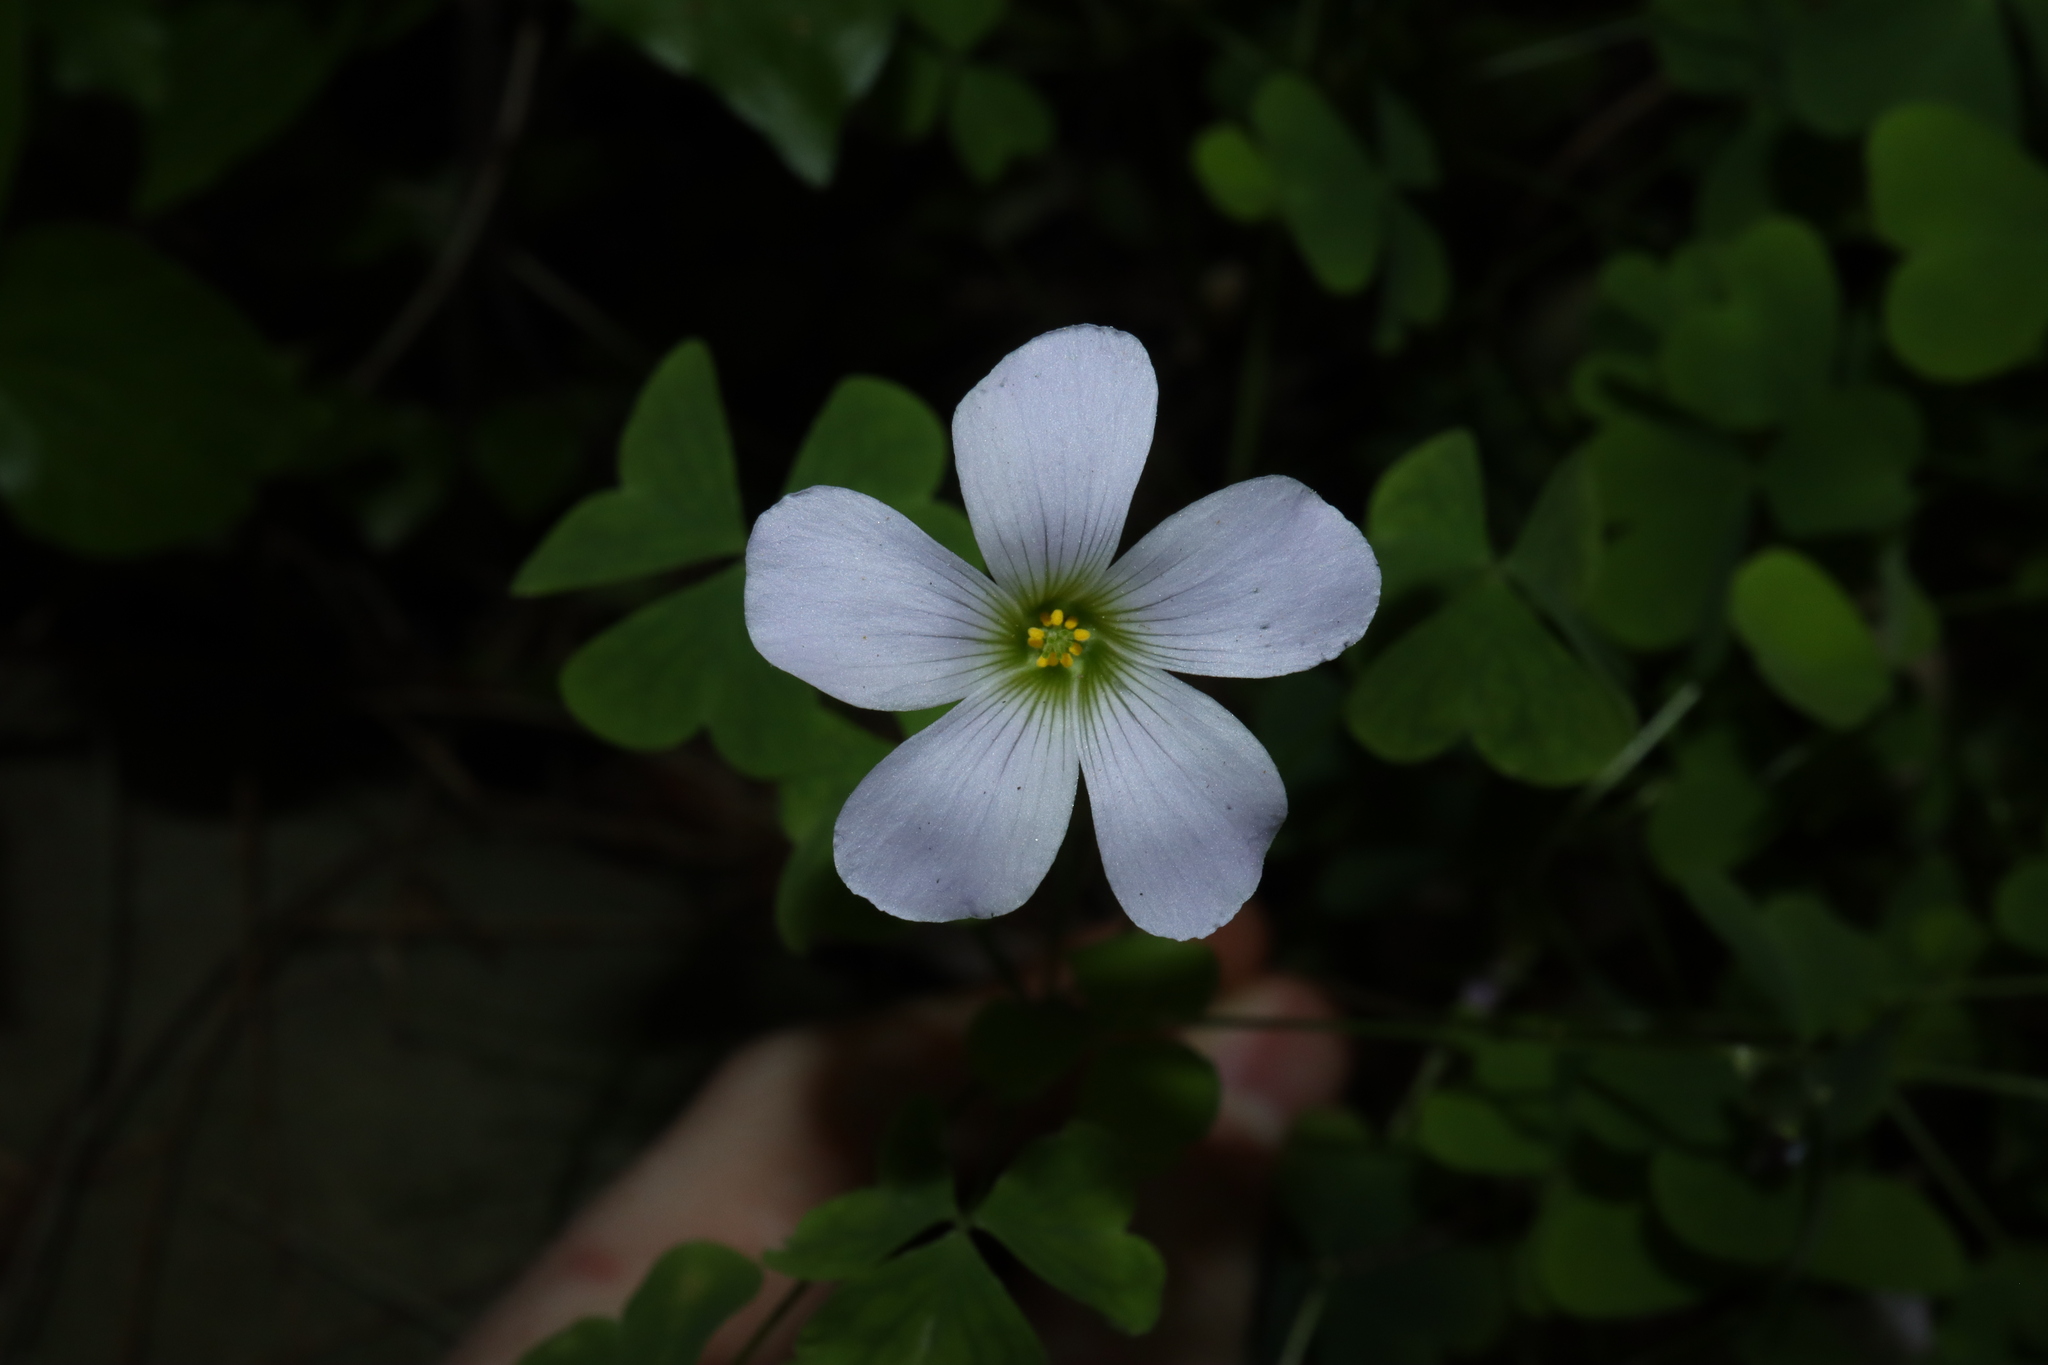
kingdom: Plantae
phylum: Tracheophyta
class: Magnoliopsida
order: Oxalidales
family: Oxalidaceae
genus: Oxalis
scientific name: Oxalis incarnata
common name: Pale pink-sorrel
